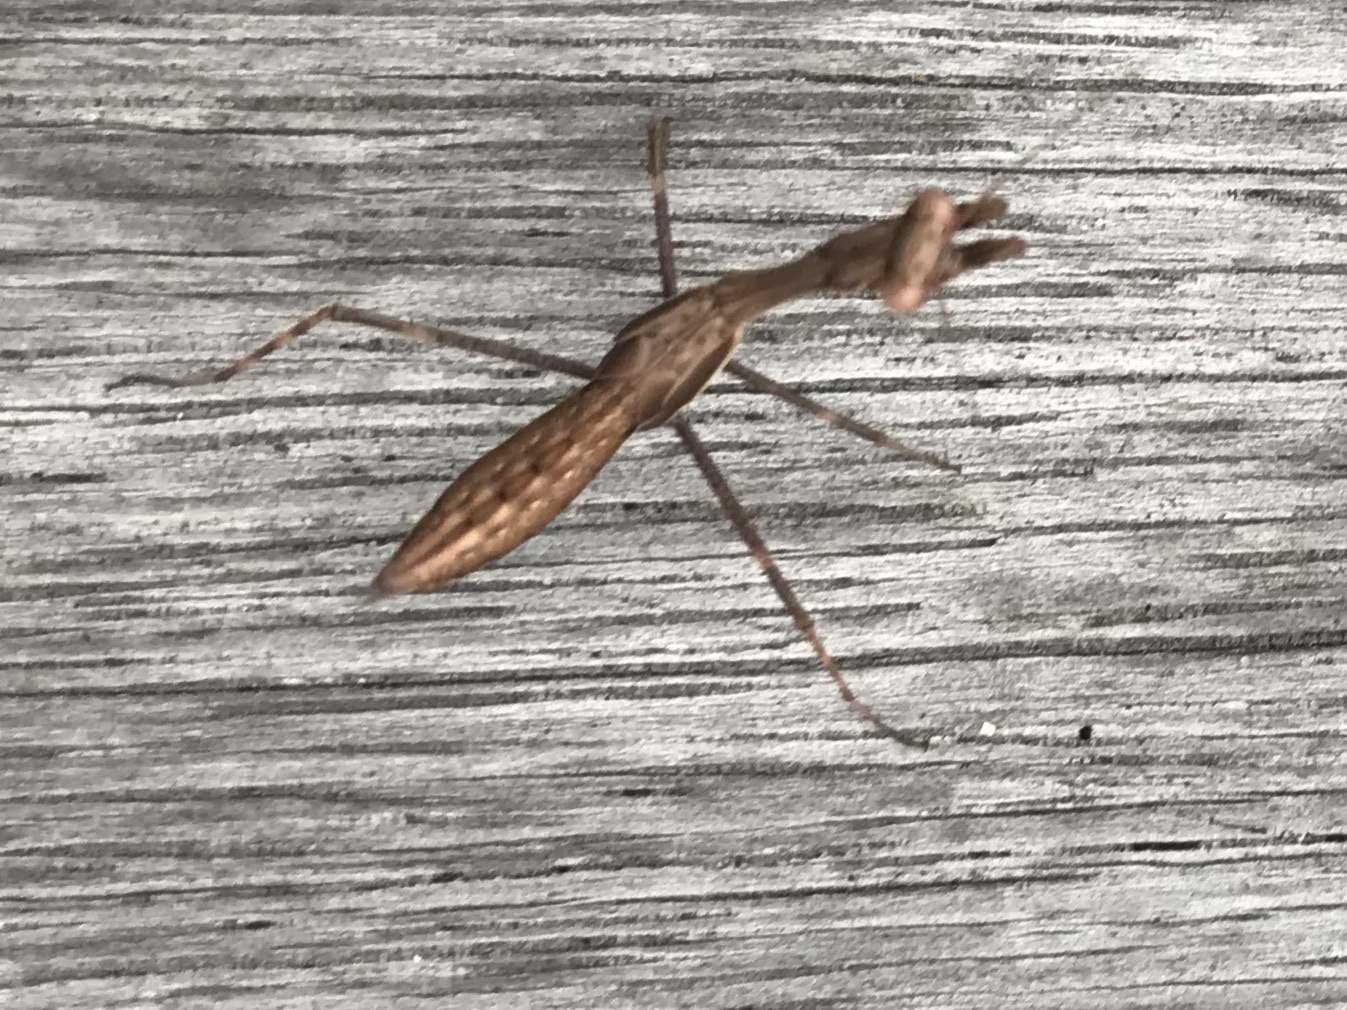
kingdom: Animalia
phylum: Arthropoda
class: Insecta
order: Mantodea
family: Miomantidae
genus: Miomantis
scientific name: Miomantis caffra
